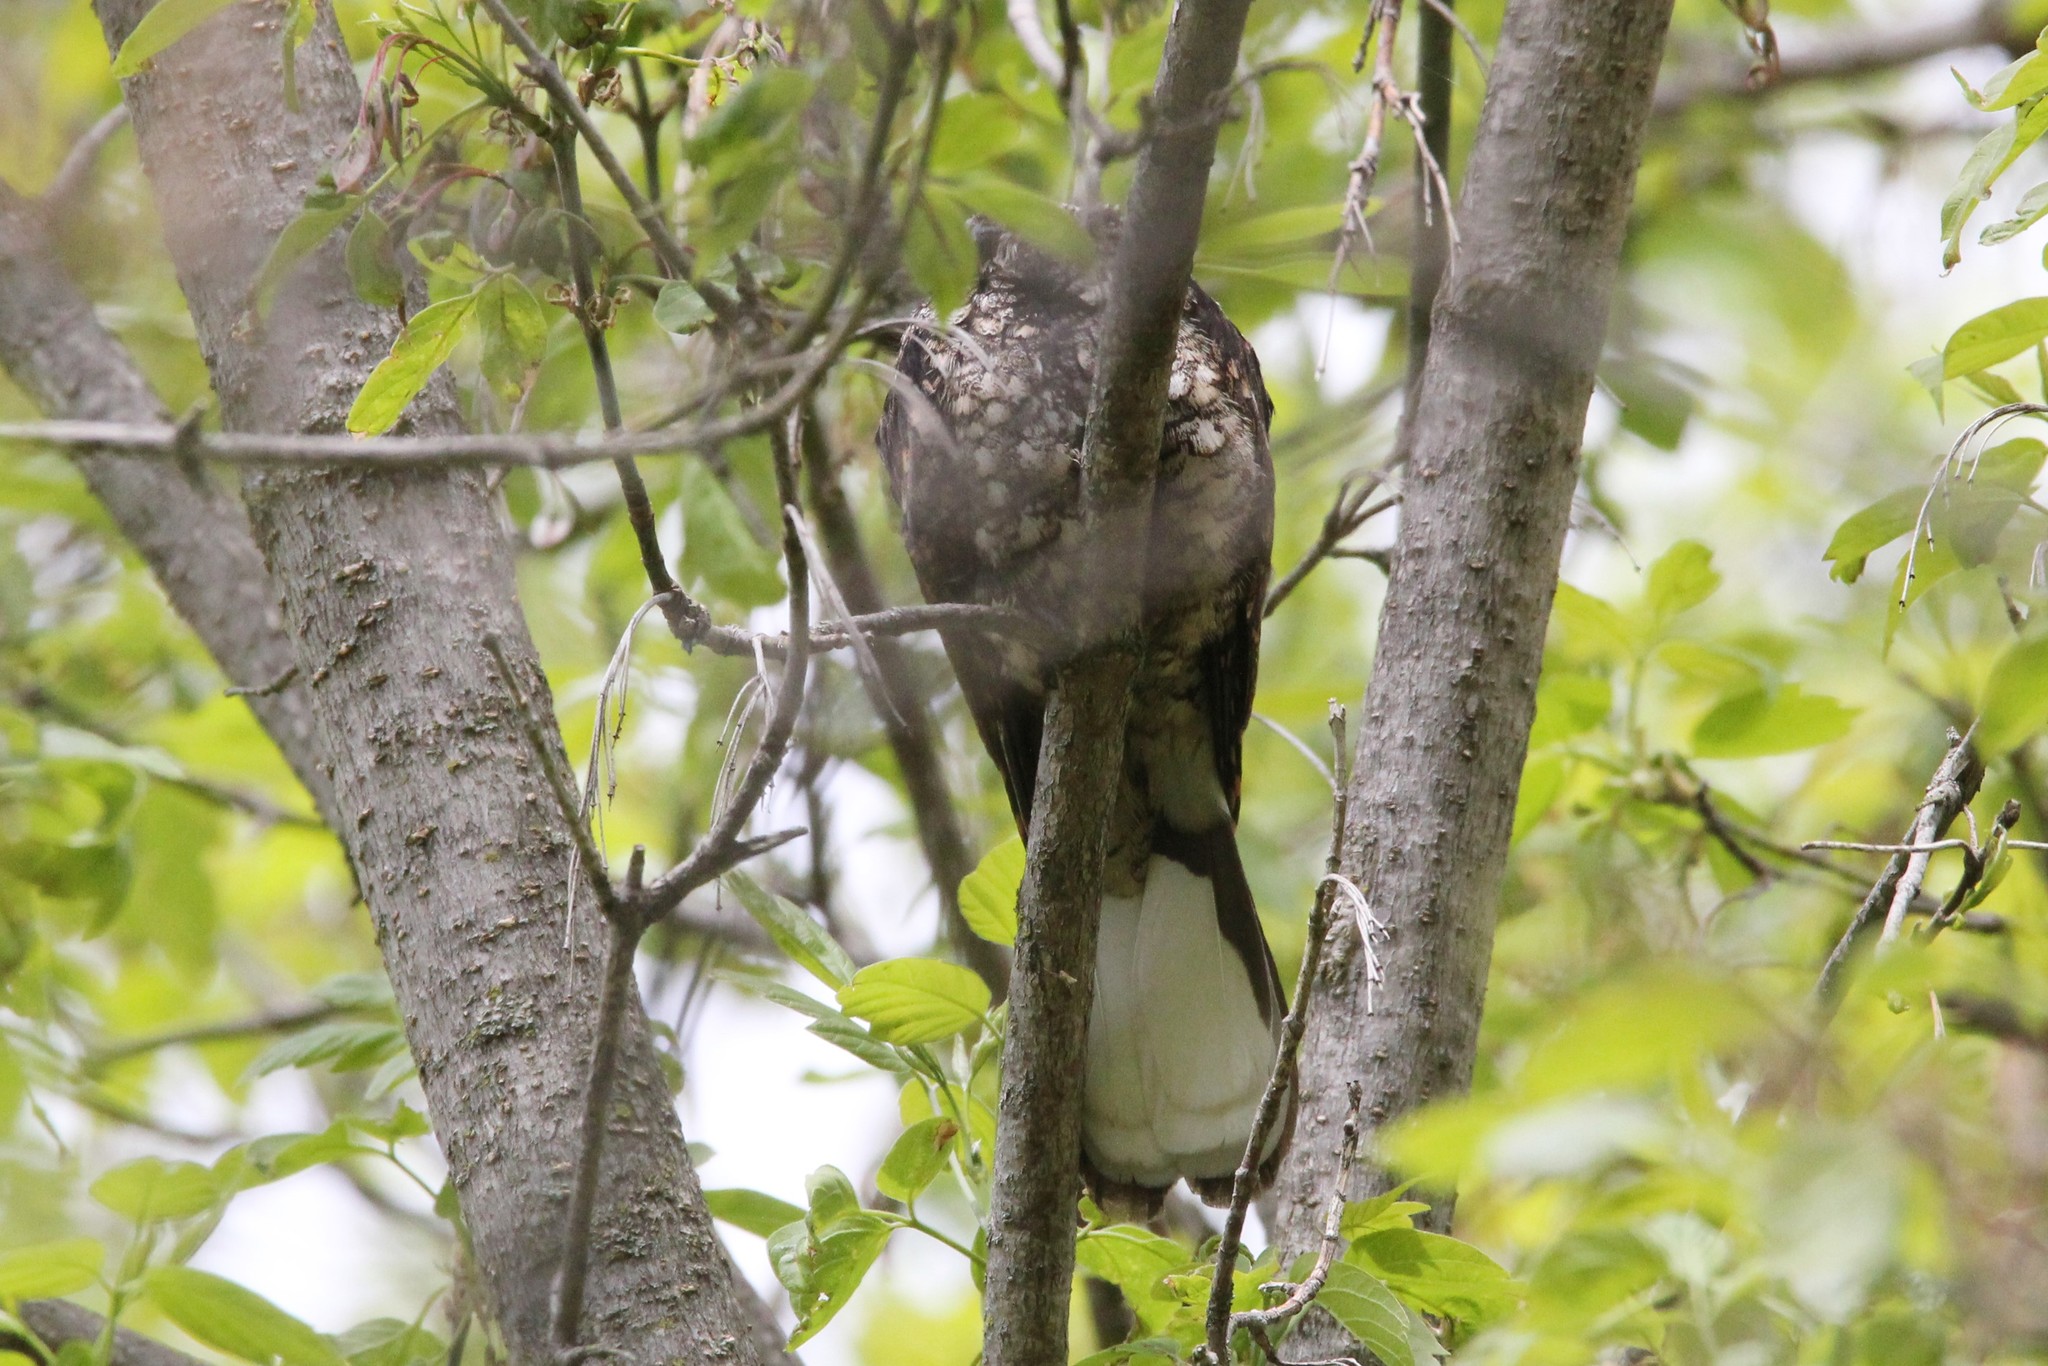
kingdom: Animalia
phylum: Chordata
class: Aves
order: Caprimulgiformes
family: Caprimulgidae
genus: Antrostomus
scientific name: Antrostomus vociferus
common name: Eastern whip-poor-will
